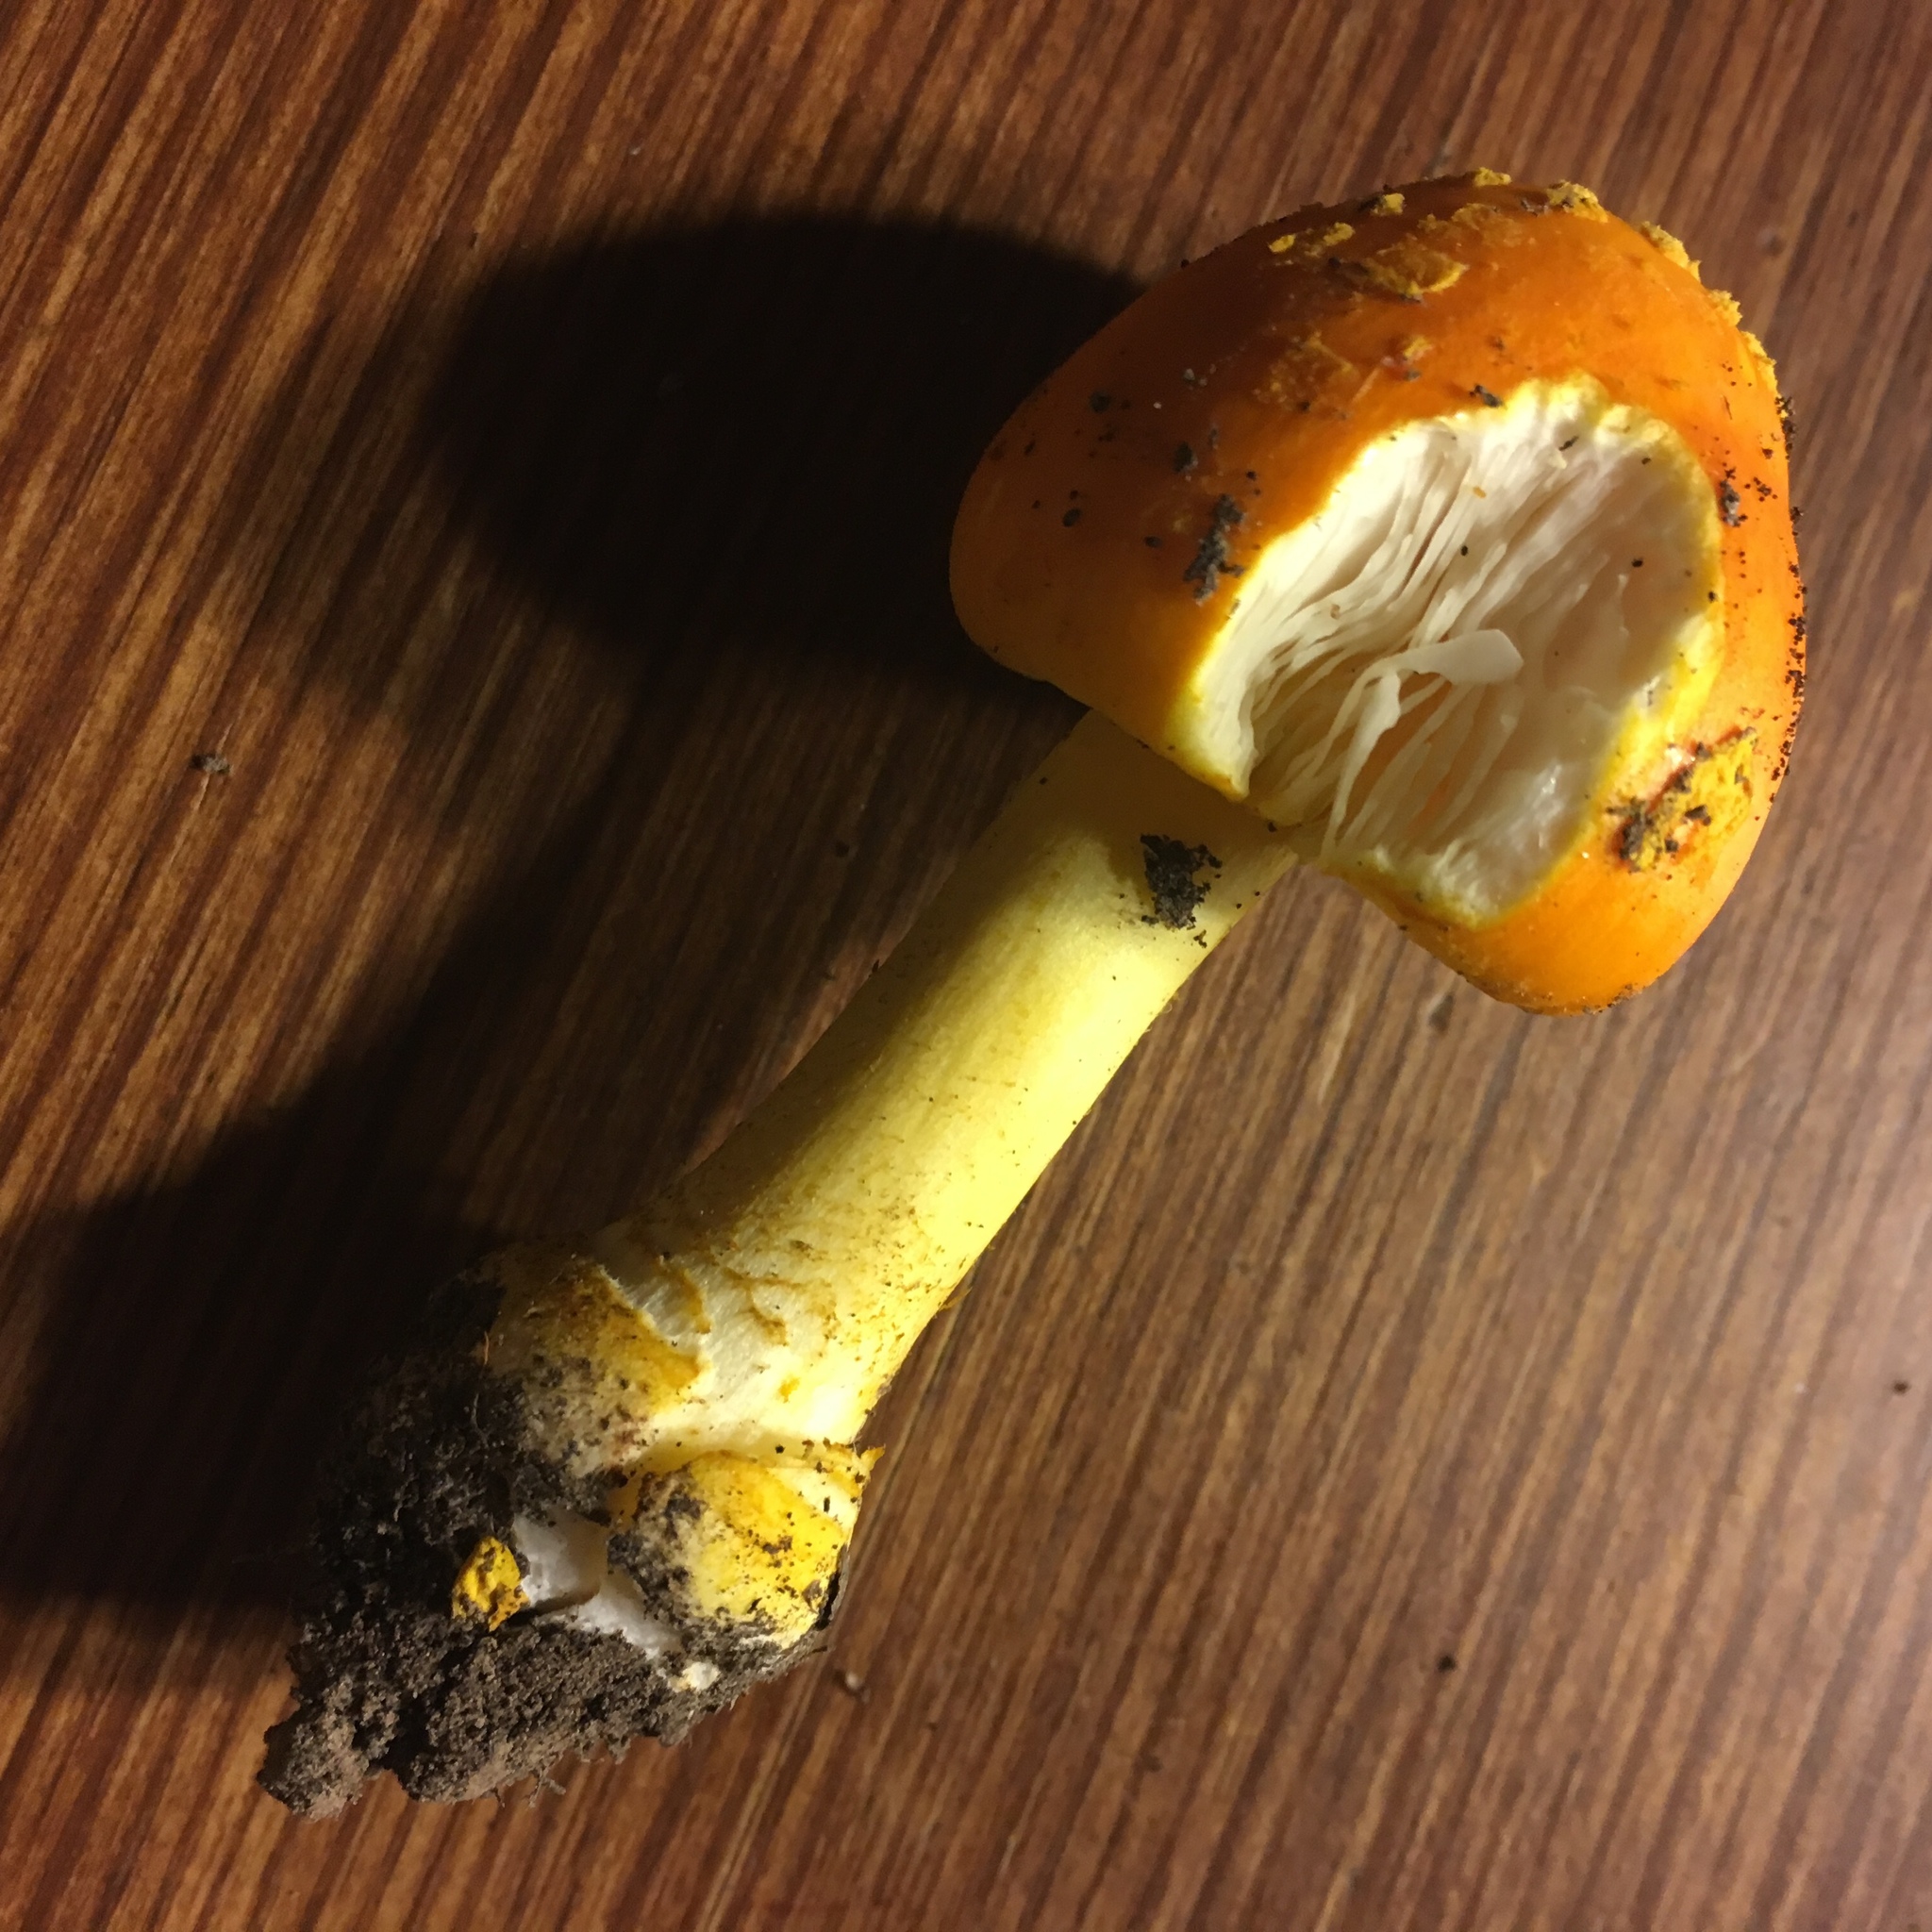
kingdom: Fungi
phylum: Basidiomycota
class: Agaricomycetes
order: Agaricales
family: Amanitaceae
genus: Amanita
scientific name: Amanita flavoconia
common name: Yellow patches
